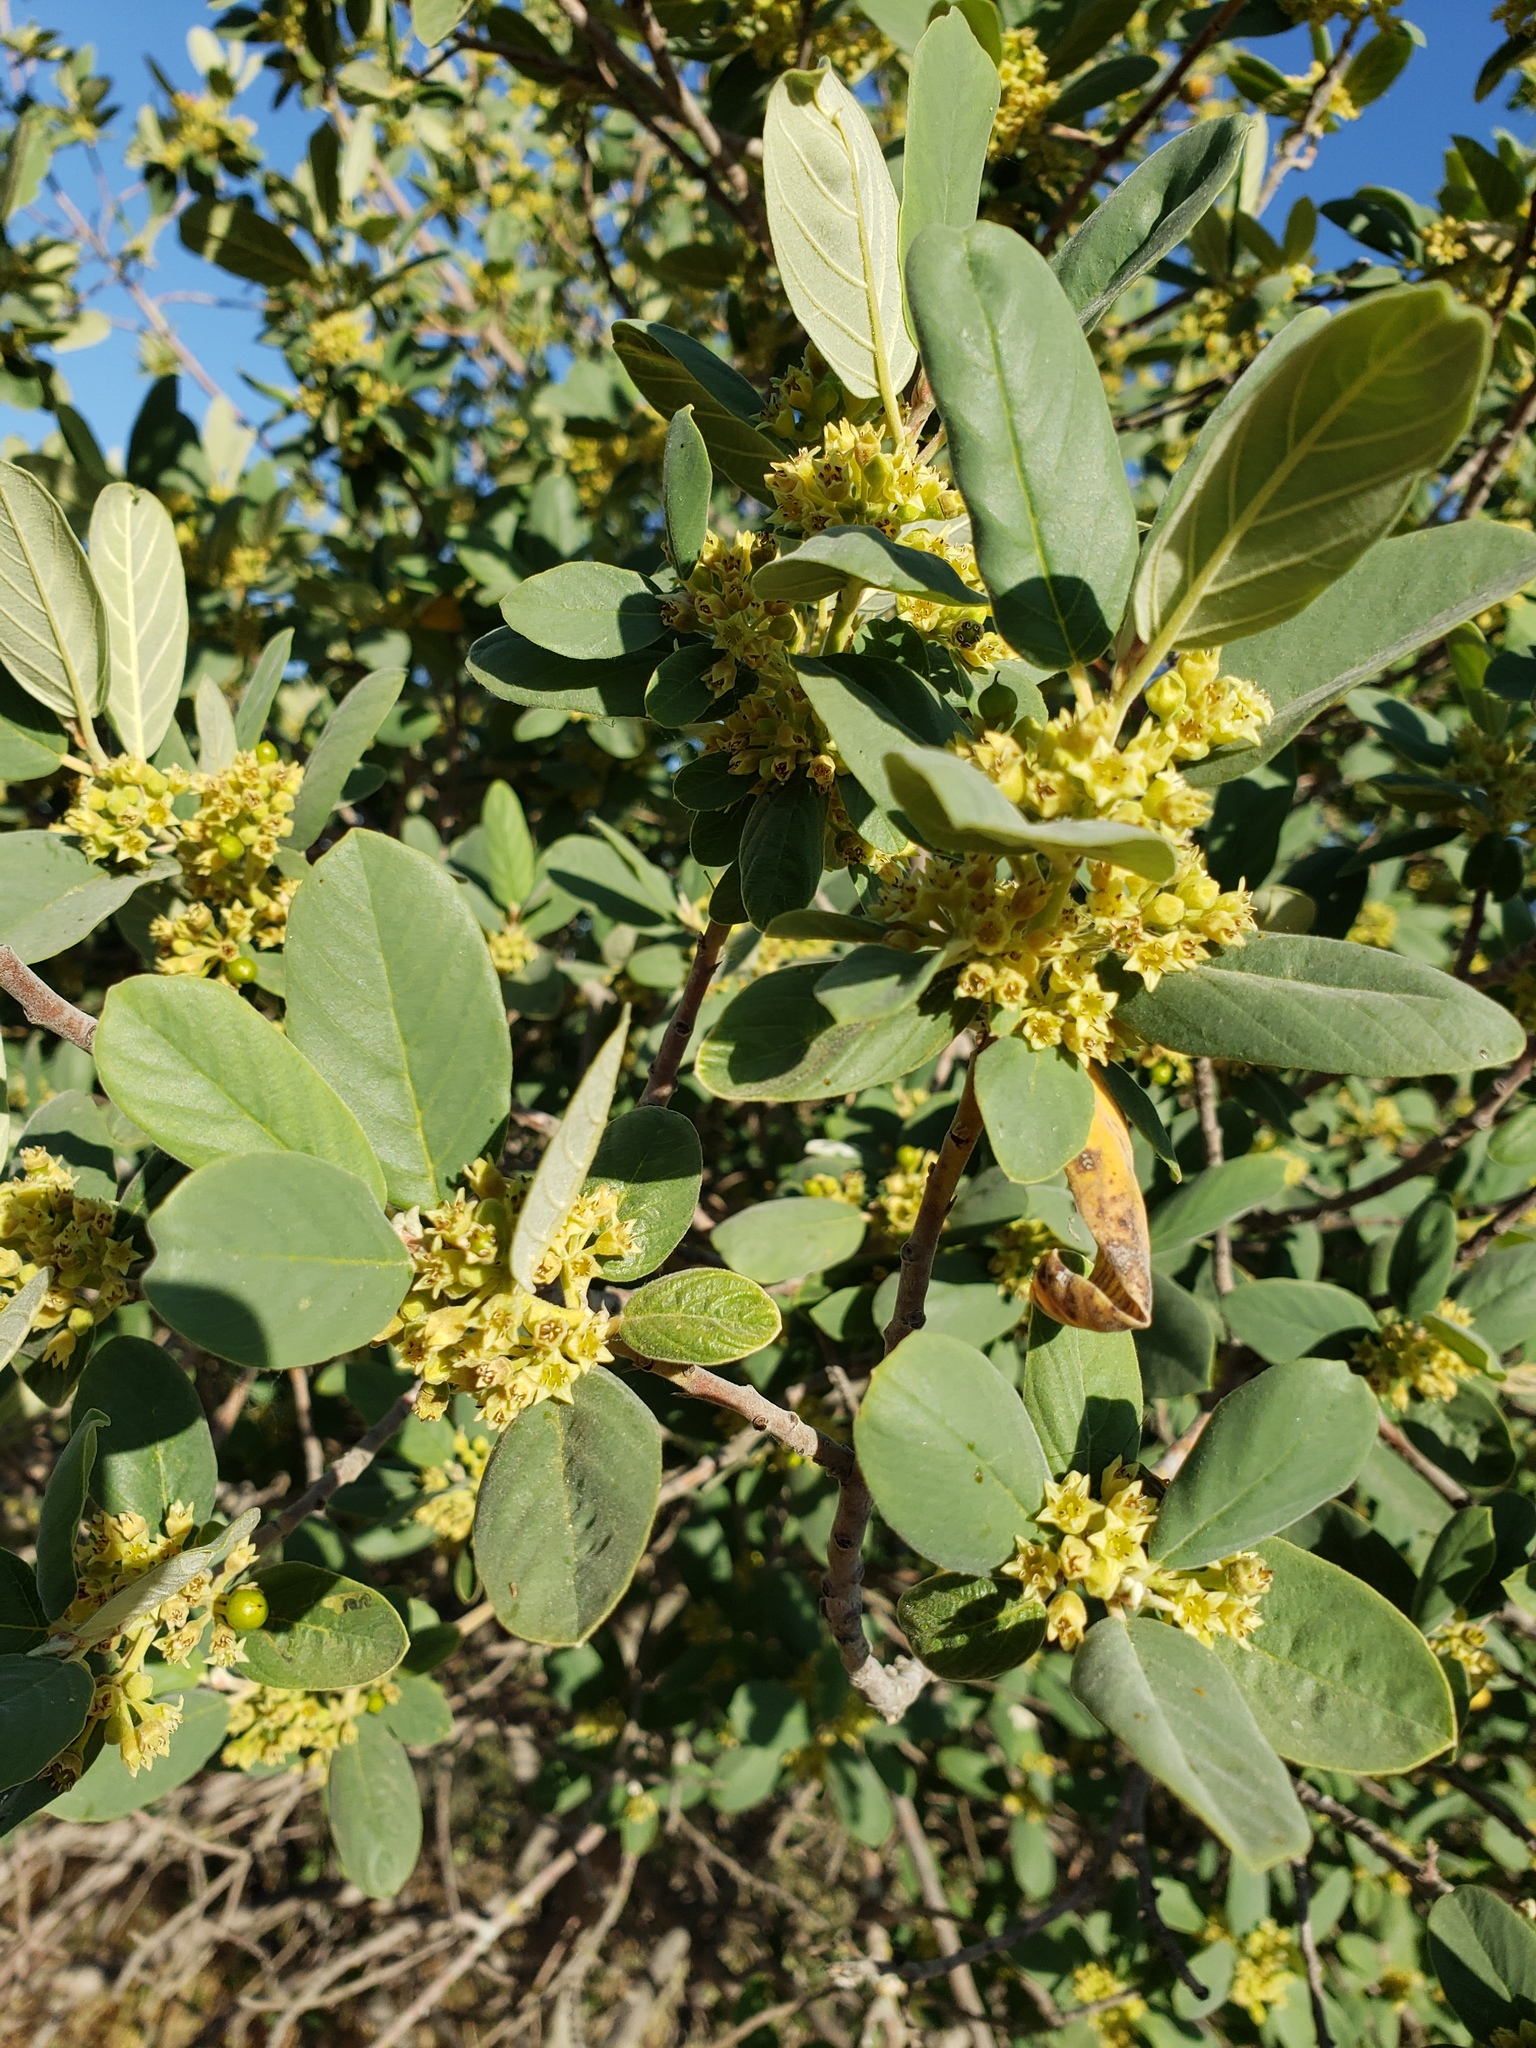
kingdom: Plantae
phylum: Tracheophyta
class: Magnoliopsida
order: Rosales
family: Rhamnaceae
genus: Frangula
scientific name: Frangula californica
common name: California buckthorn
